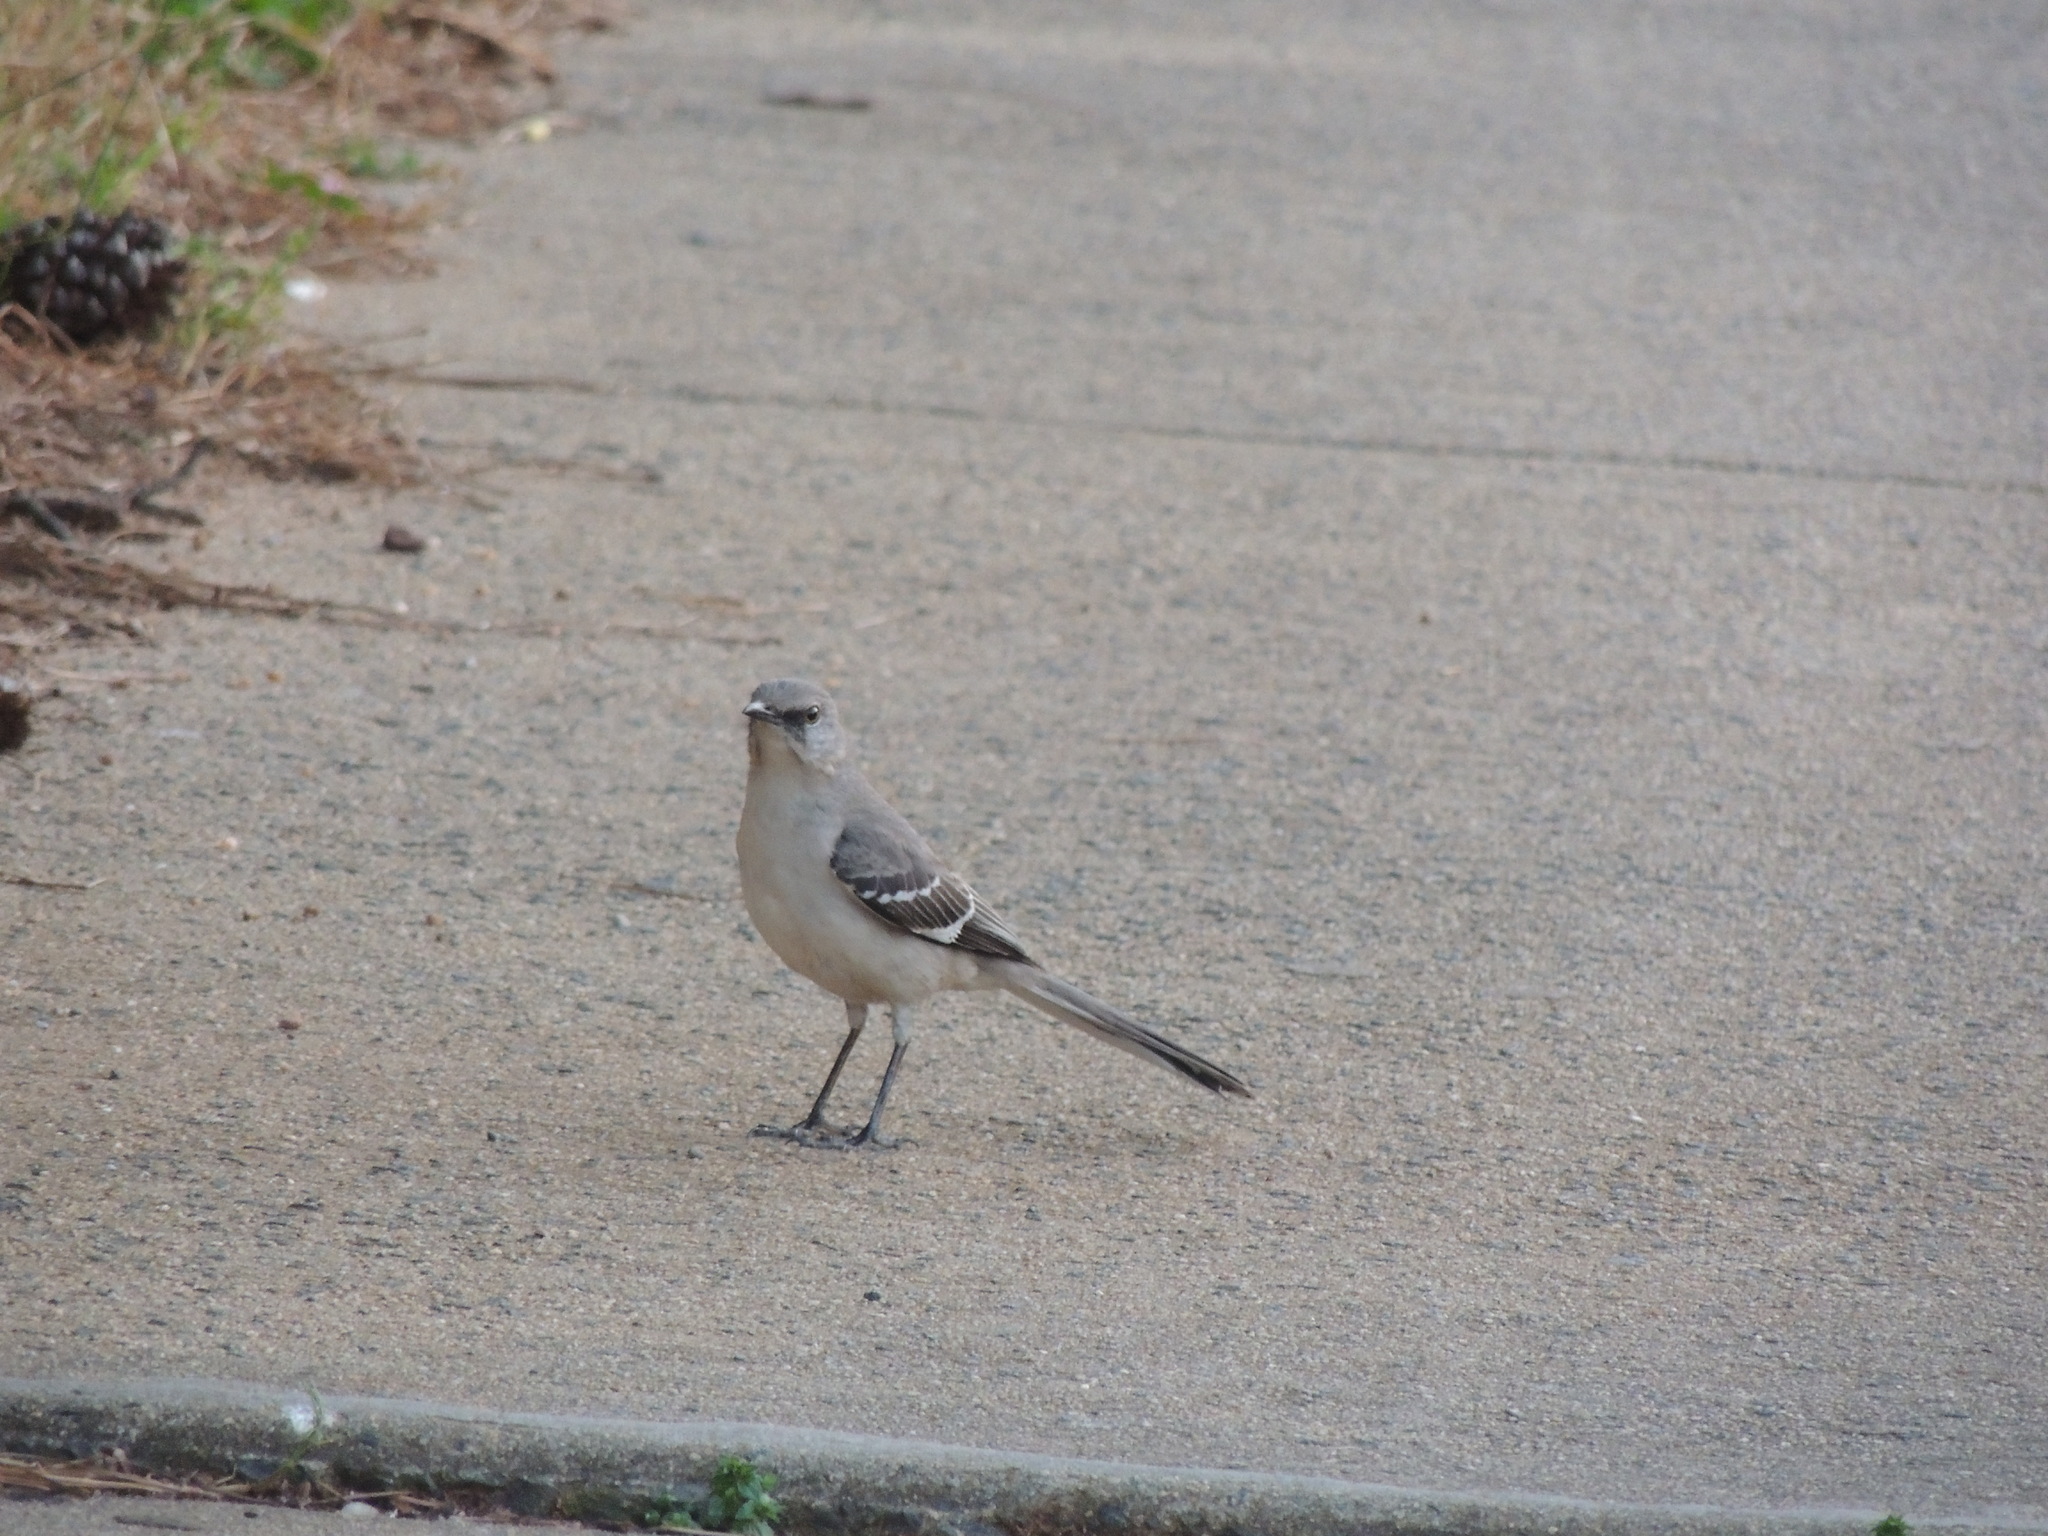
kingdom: Animalia
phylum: Chordata
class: Aves
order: Passeriformes
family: Mimidae
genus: Mimus
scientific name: Mimus polyglottos
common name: Northern mockingbird
